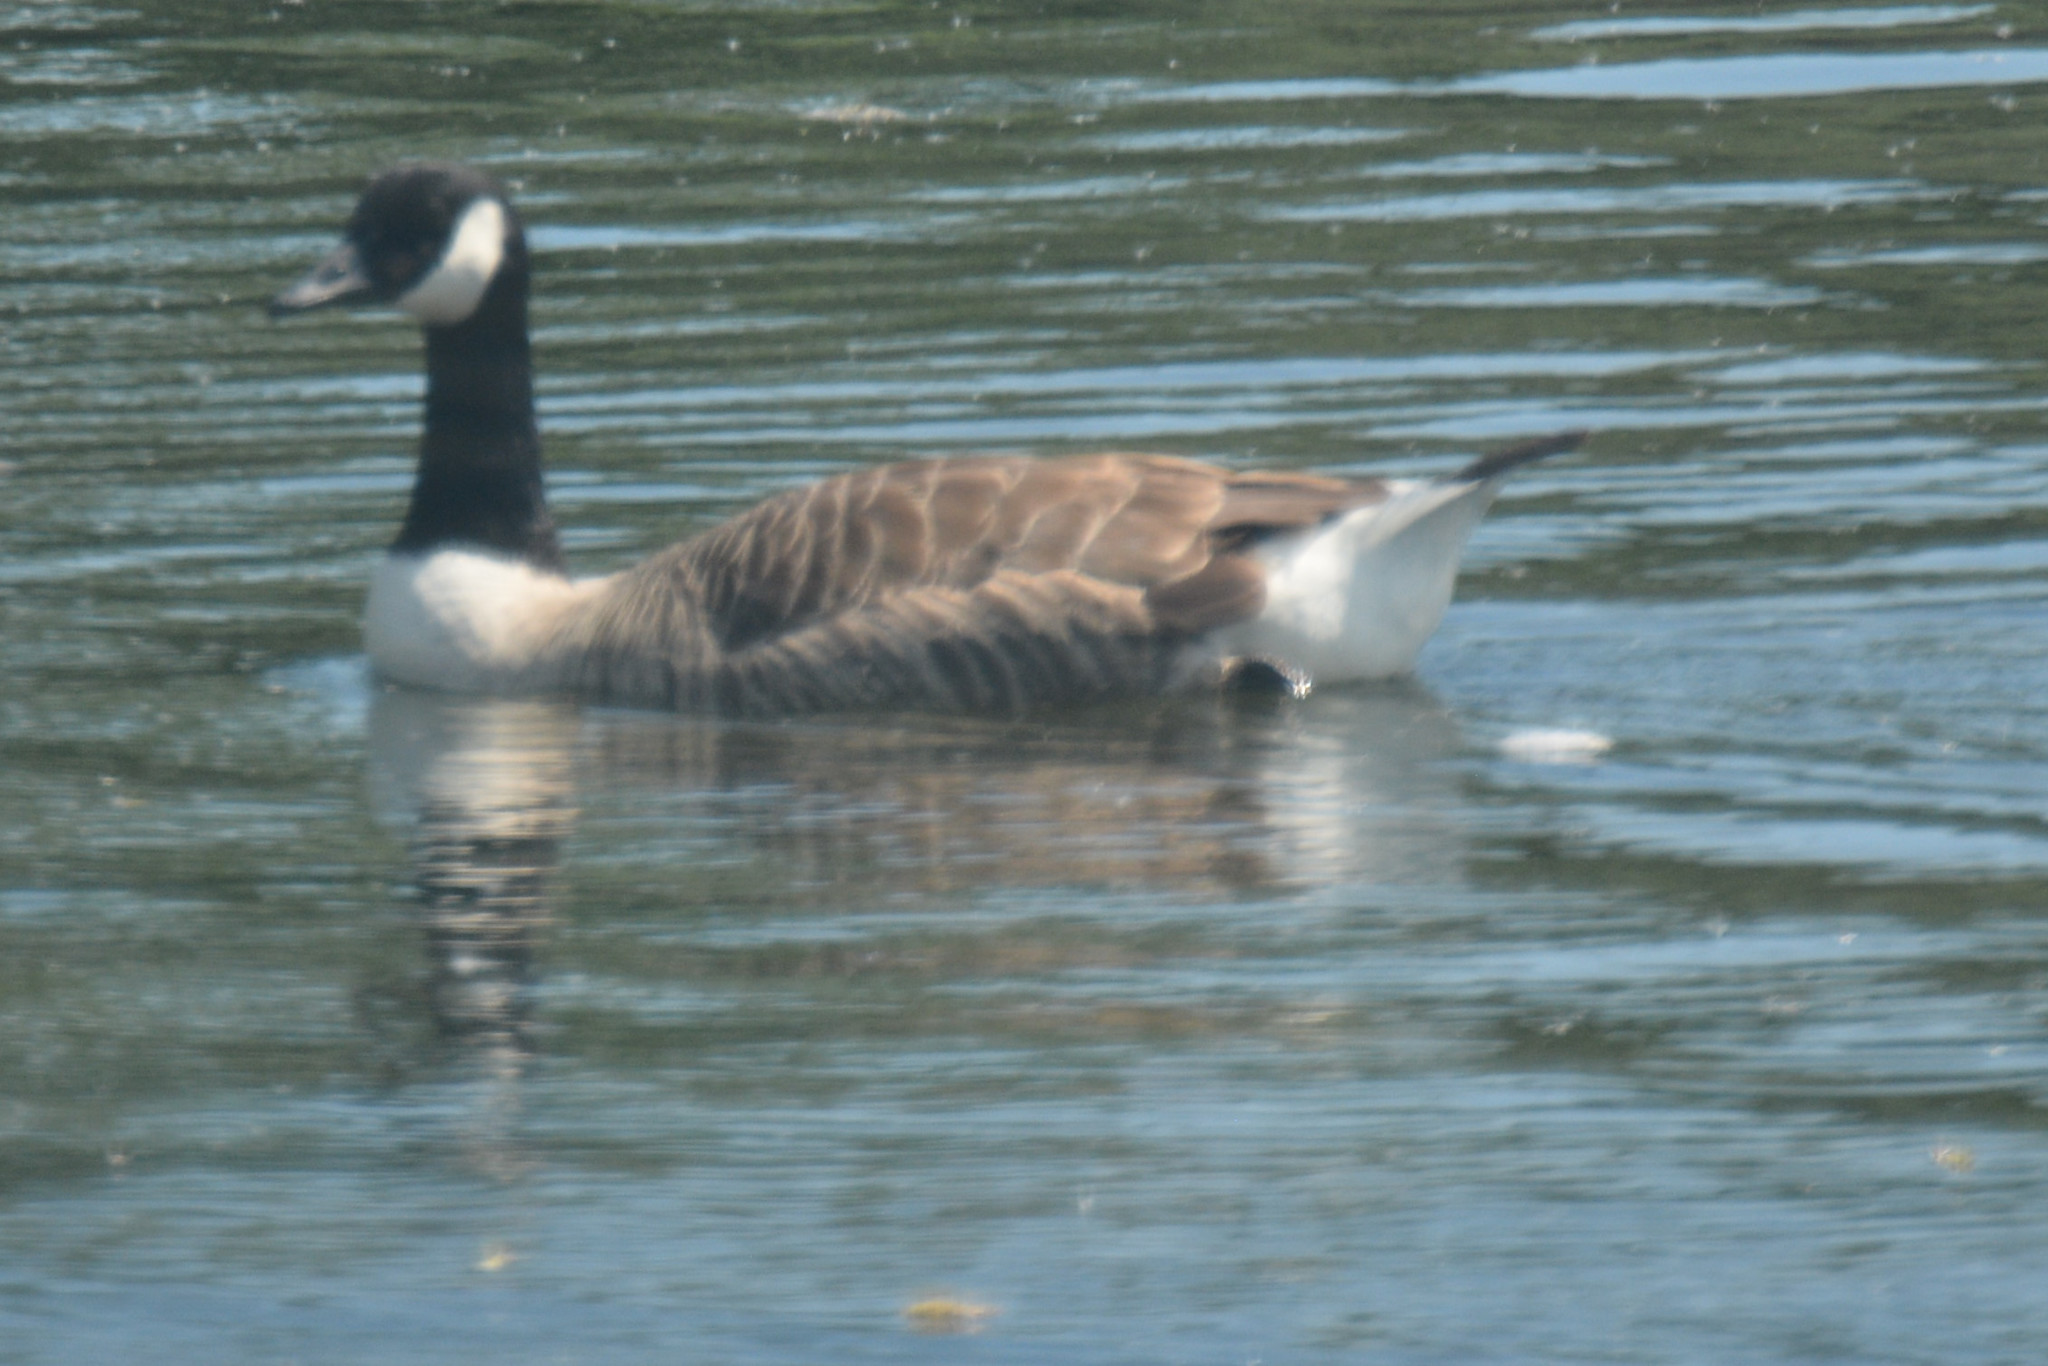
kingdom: Animalia
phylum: Chordata
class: Aves
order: Anseriformes
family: Anatidae
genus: Branta
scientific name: Branta canadensis
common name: Canada goose
